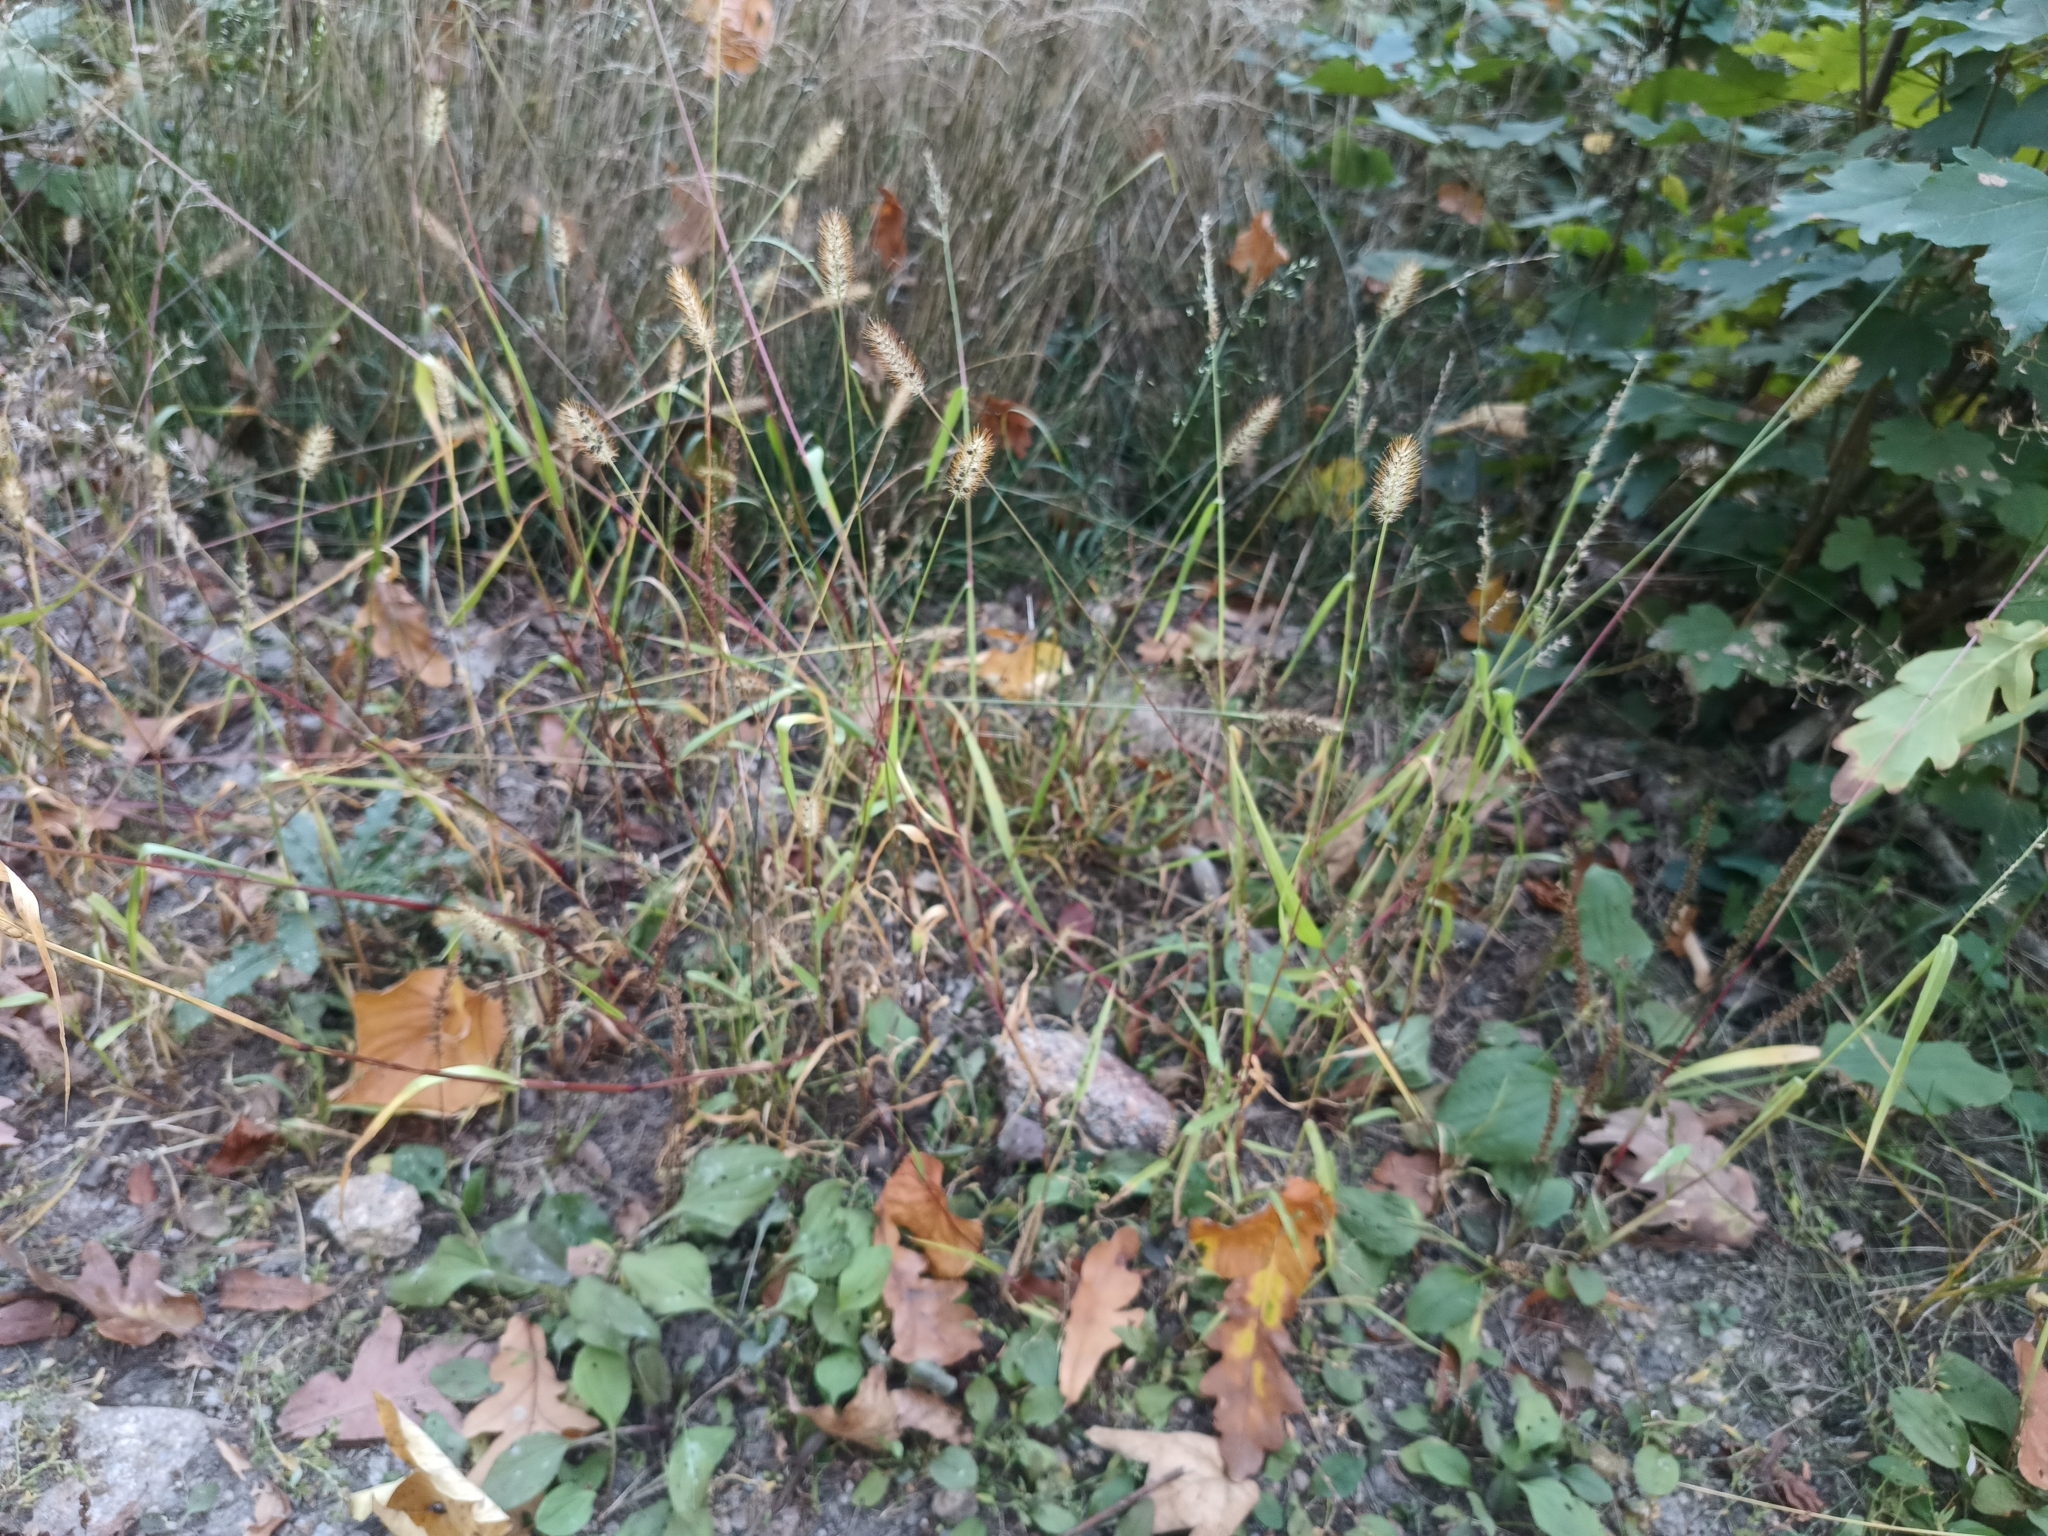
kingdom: Plantae
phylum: Tracheophyta
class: Liliopsida
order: Poales
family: Poaceae
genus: Setaria
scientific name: Setaria pumila
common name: Yellow bristle-grass
